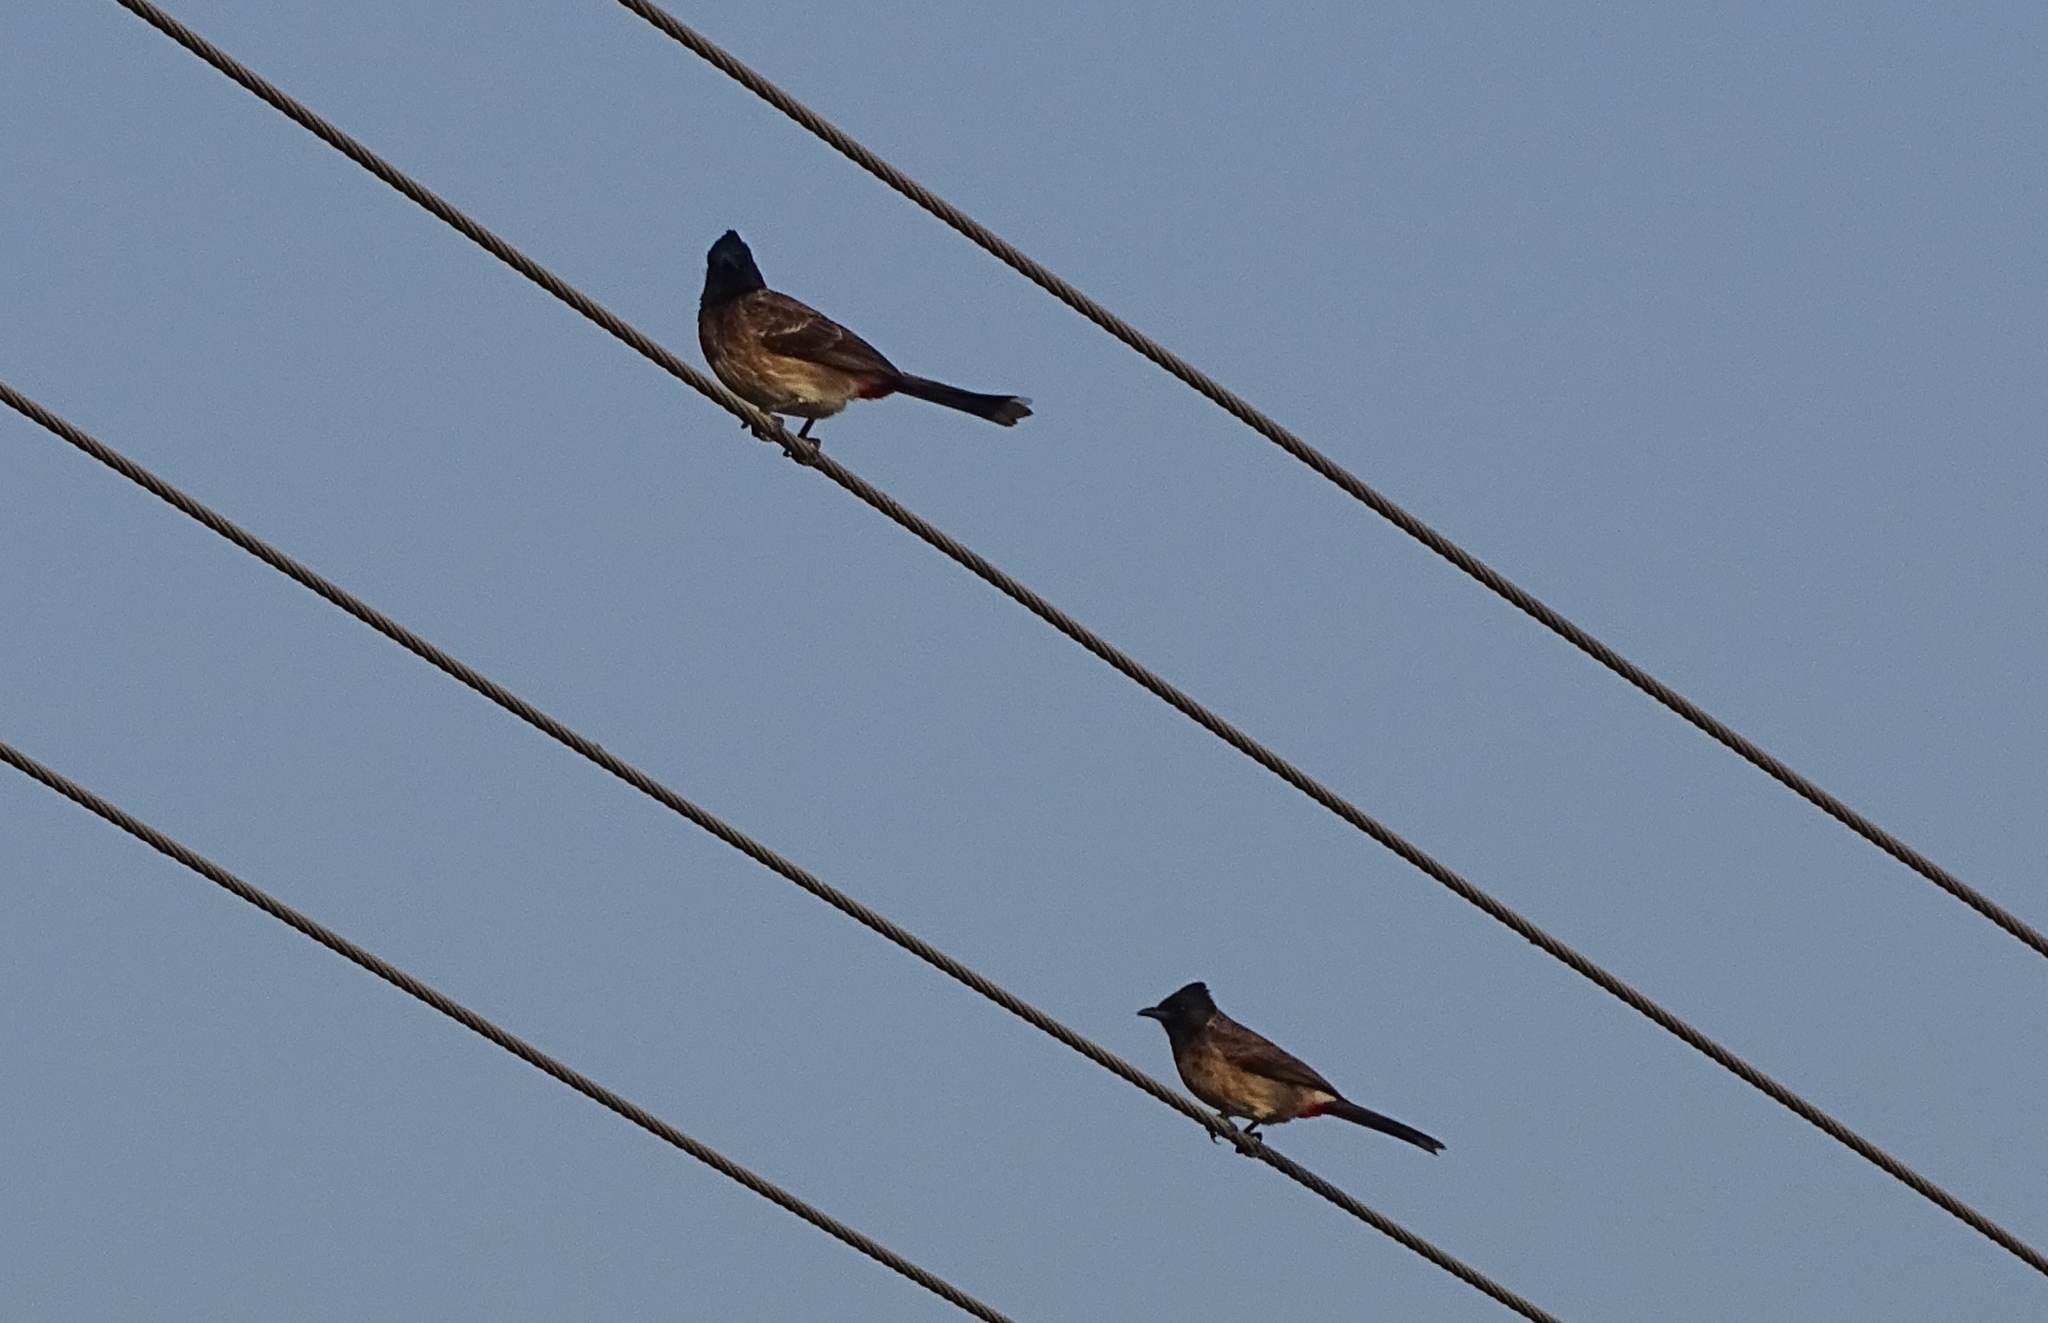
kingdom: Animalia
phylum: Chordata
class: Aves
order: Passeriformes
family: Pycnonotidae
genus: Pycnonotus
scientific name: Pycnonotus cafer
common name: Red-vented bulbul
